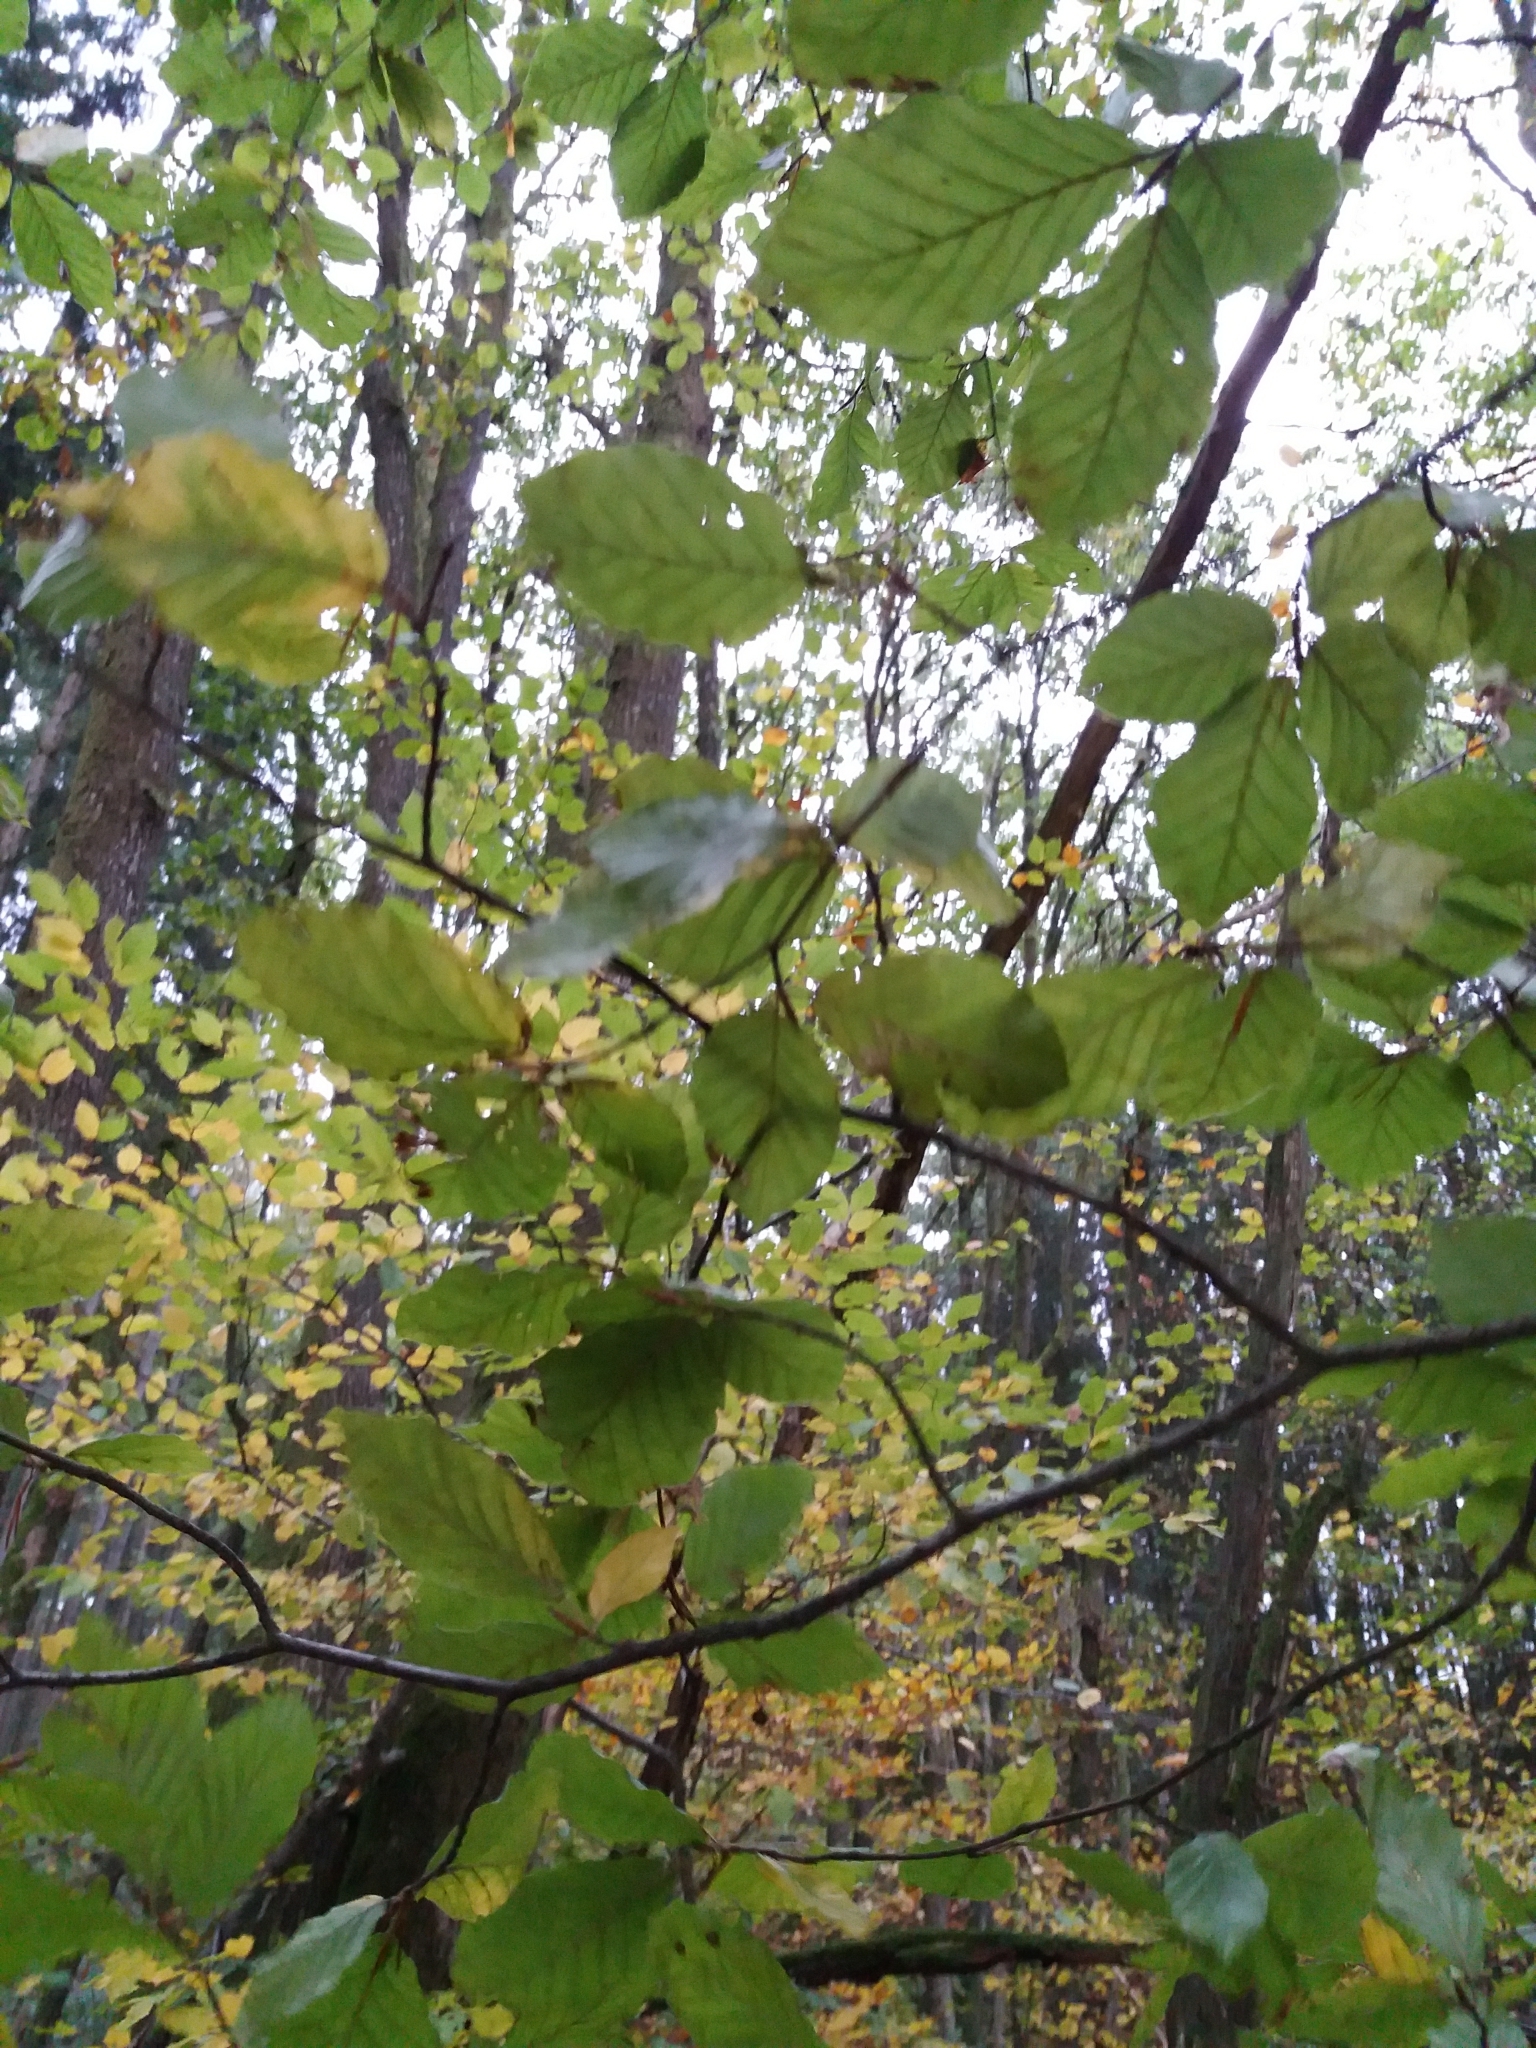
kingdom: Plantae
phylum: Tracheophyta
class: Magnoliopsida
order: Fagales
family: Fagaceae
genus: Fagus
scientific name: Fagus sylvatica
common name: Beech
